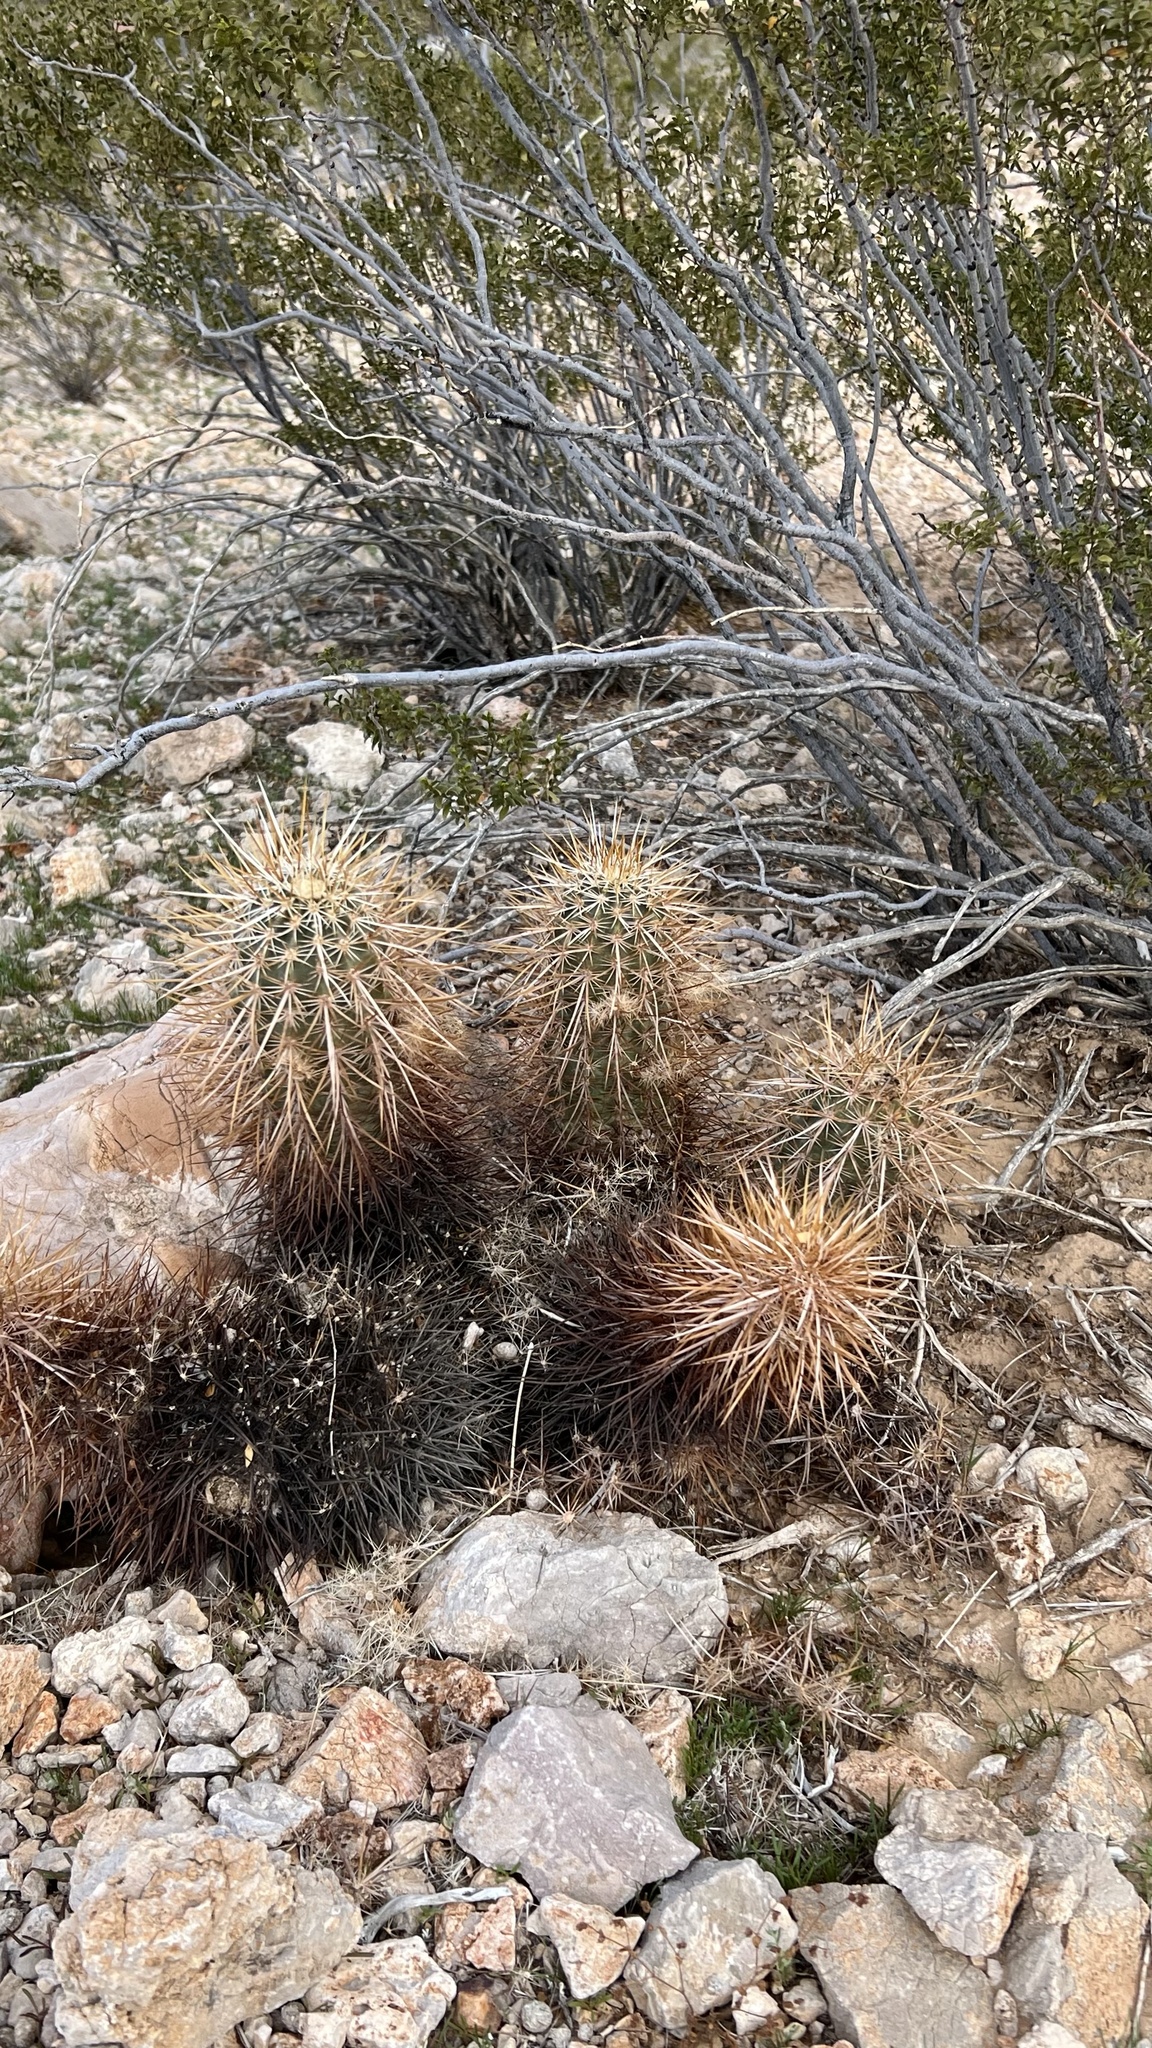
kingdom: Plantae
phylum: Tracheophyta
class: Magnoliopsida
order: Caryophyllales
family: Cactaceae
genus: Echinocereus
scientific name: Echinocereus engelmannii
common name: Engelmann's hedgehog cactus
